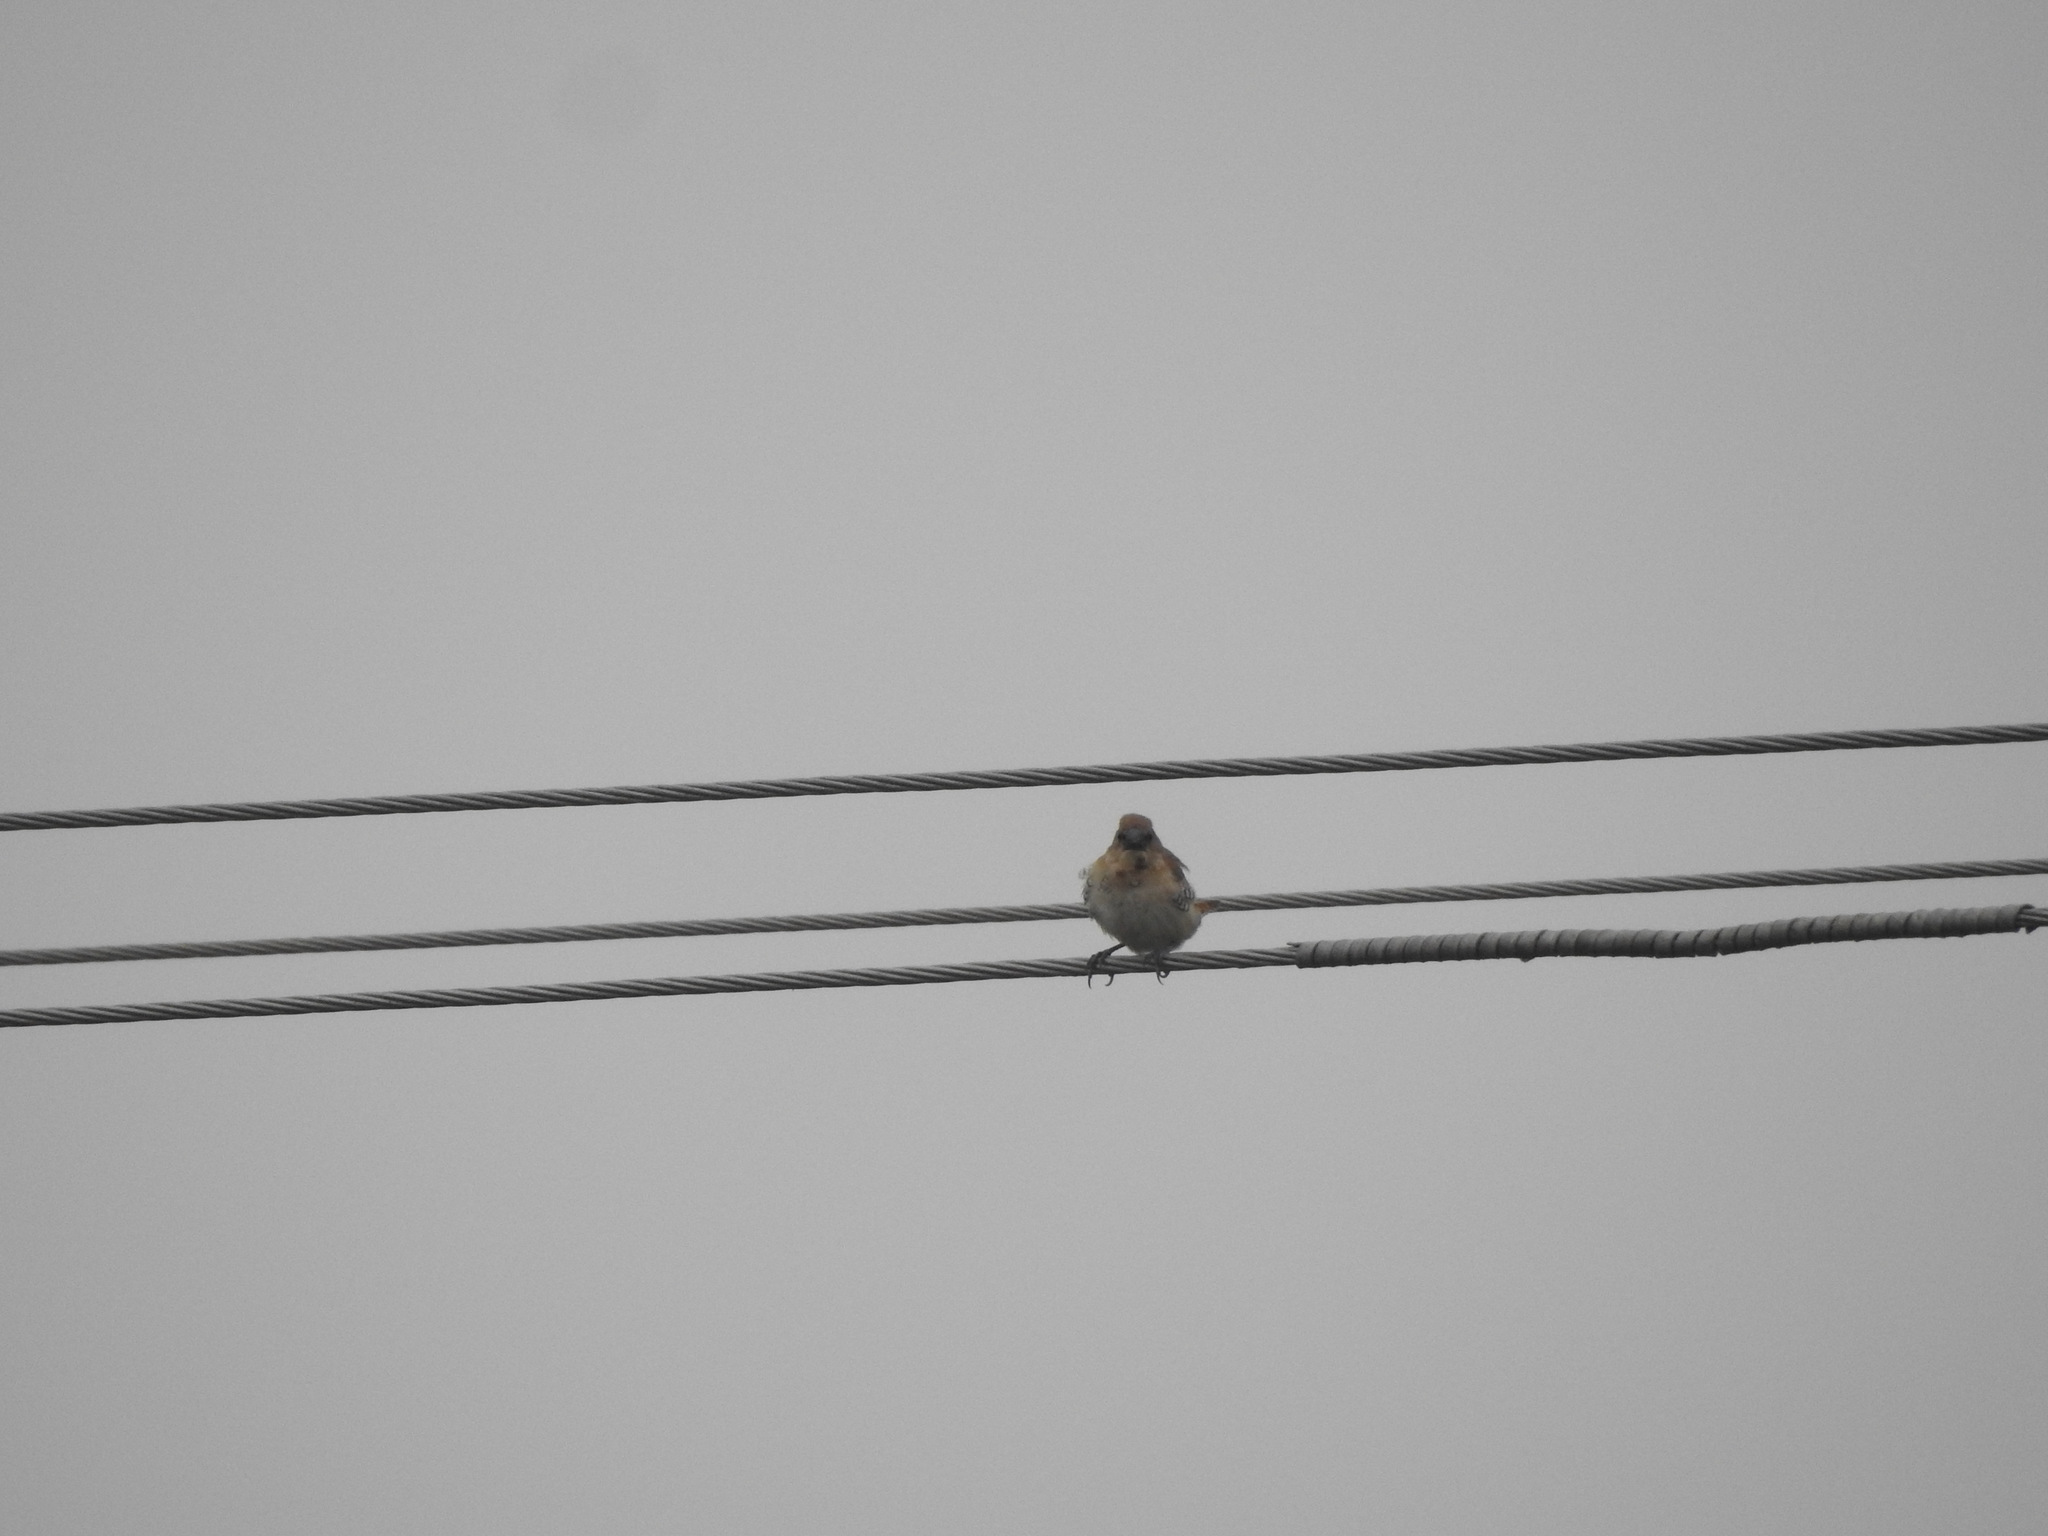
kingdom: Animalia
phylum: Chordata
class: Aves
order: Passeriformes
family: Estrildidae
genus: Lonchura
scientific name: Lonchura punctulata
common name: Scaly-breasted munia
